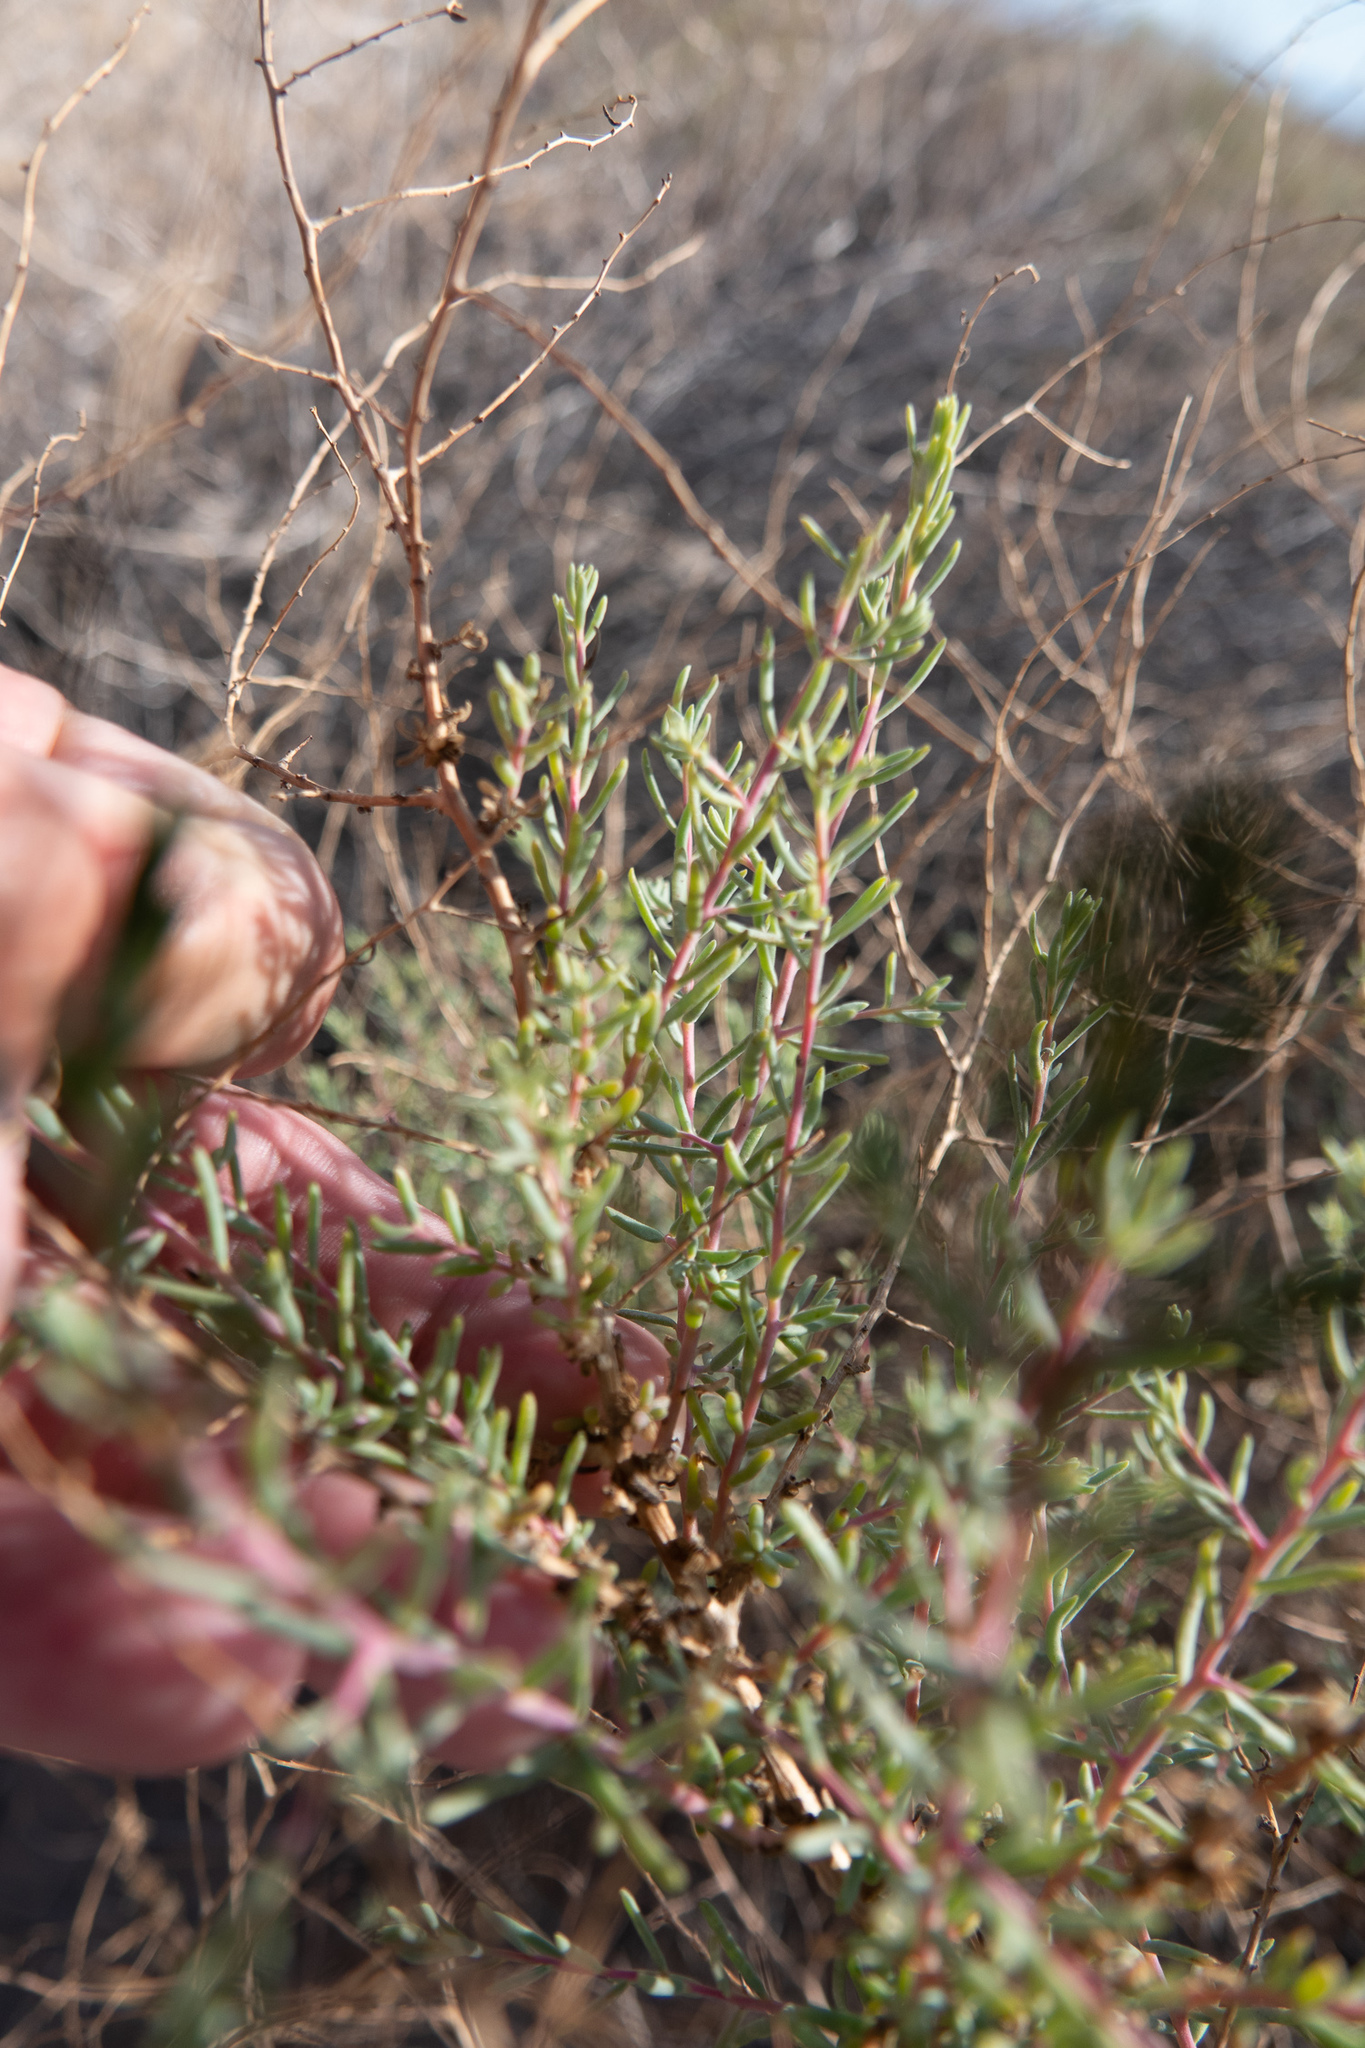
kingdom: Plantae
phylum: Tracheophyta
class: Magnoliopsida
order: Caryophyllales
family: Amaranthaceae
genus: Suaeda
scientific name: Suaeda nigra
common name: Bush seepweed
